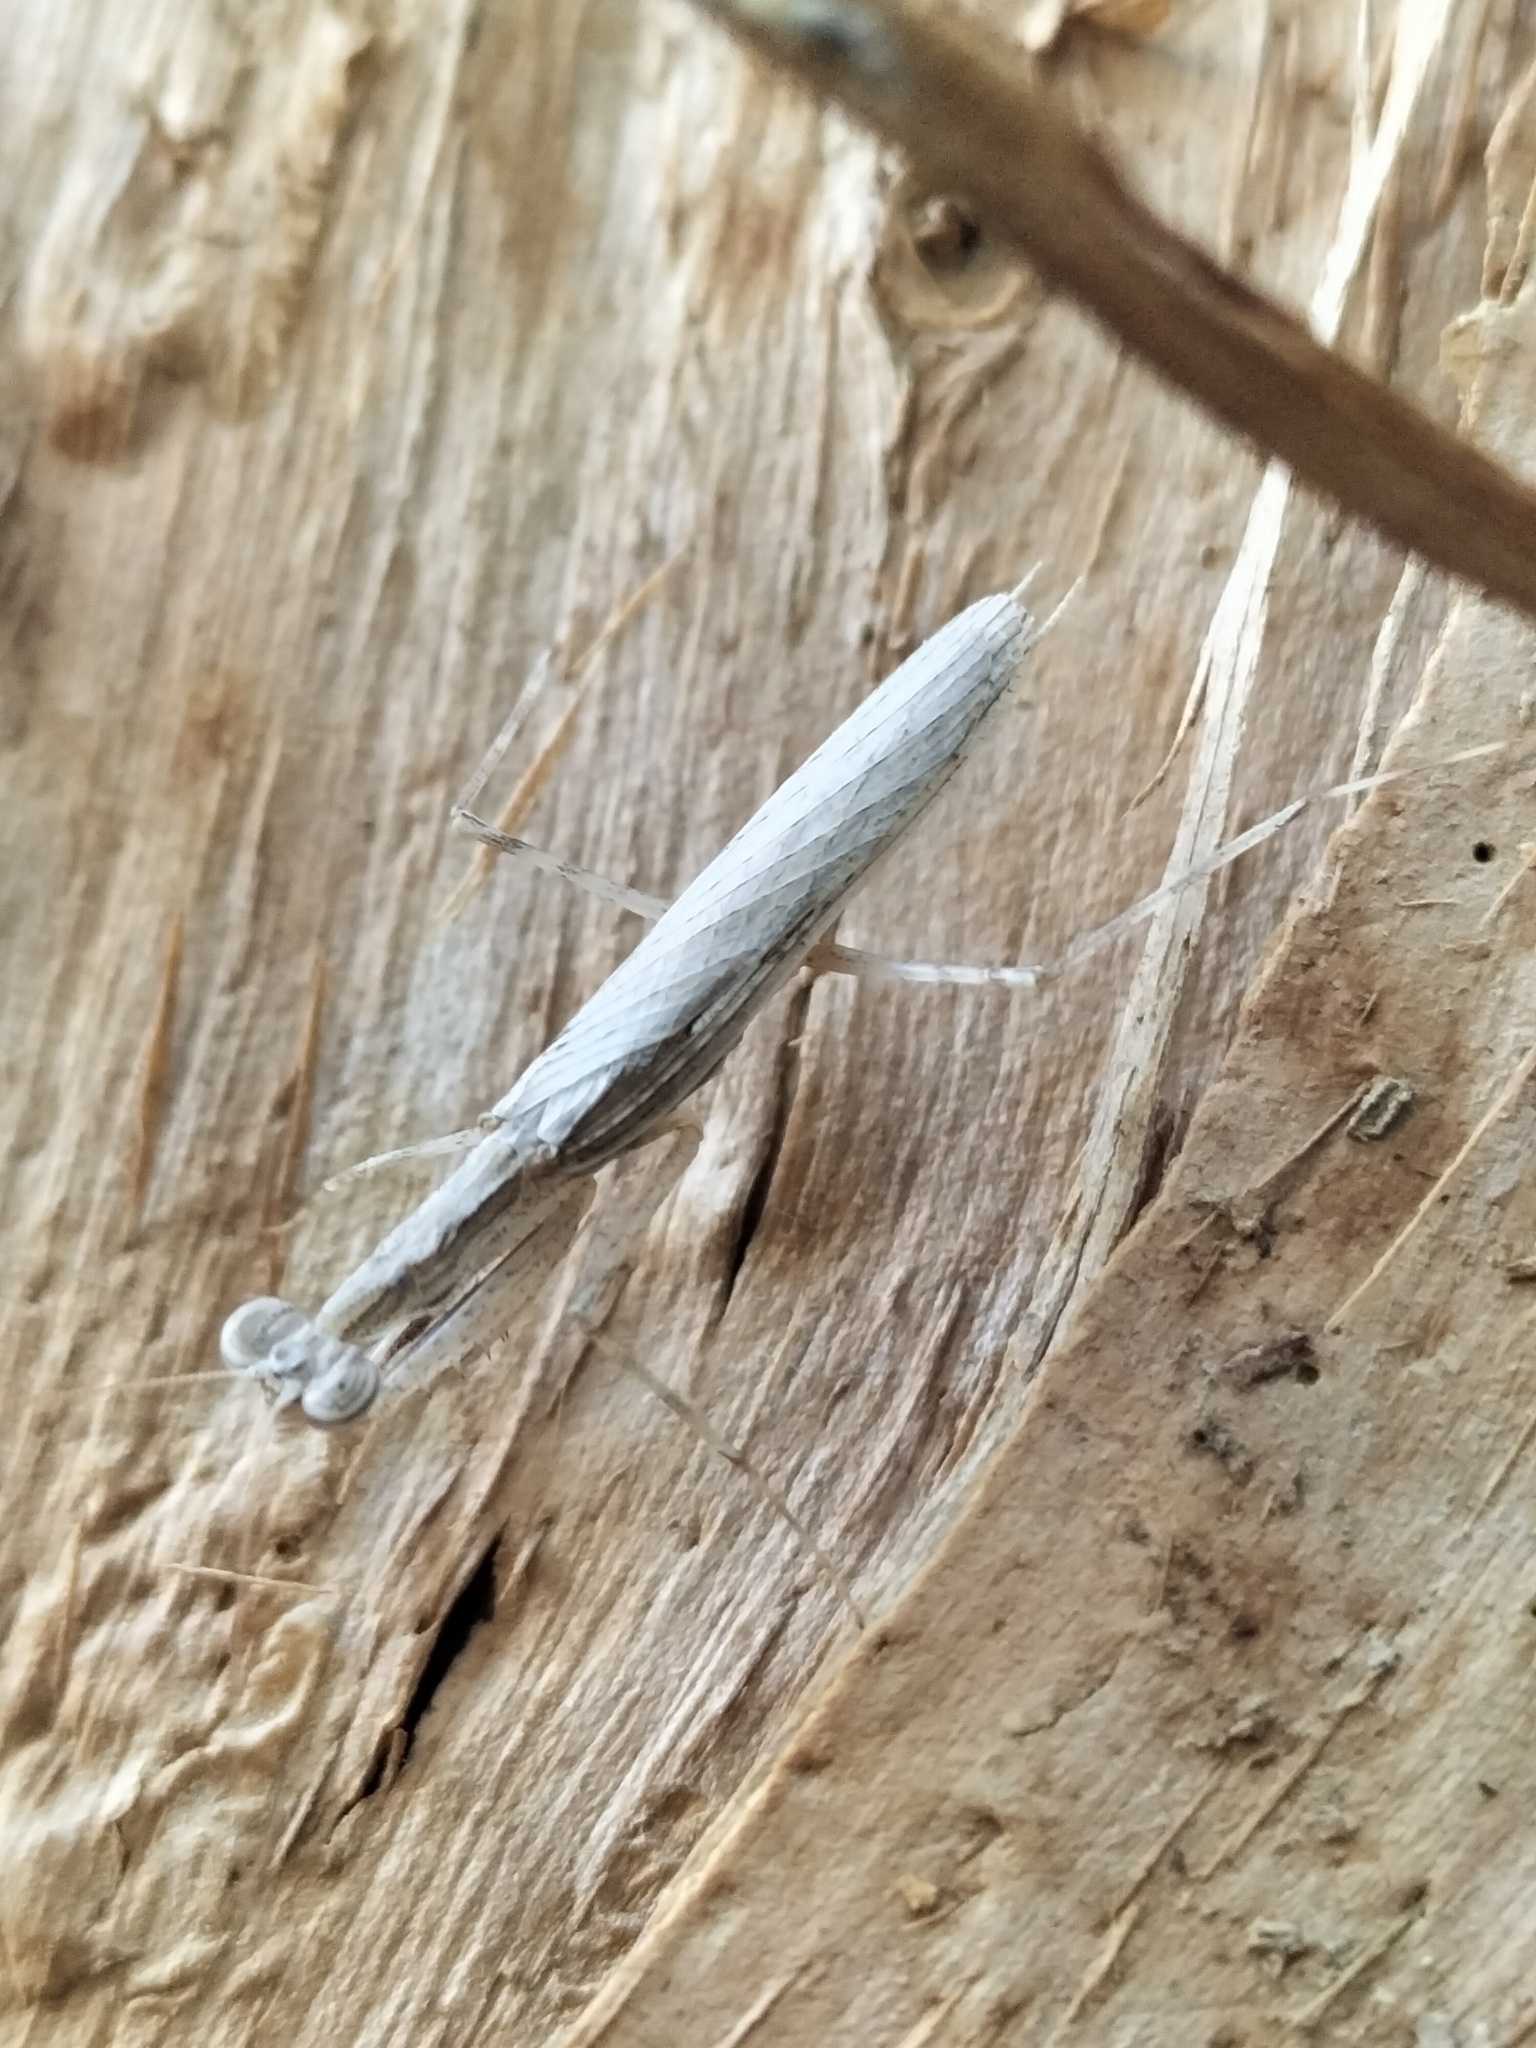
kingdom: Animalia
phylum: Arthropoda
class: Insecta
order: Mantodea
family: Nanomantidae
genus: Ima
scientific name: Ima fusca
